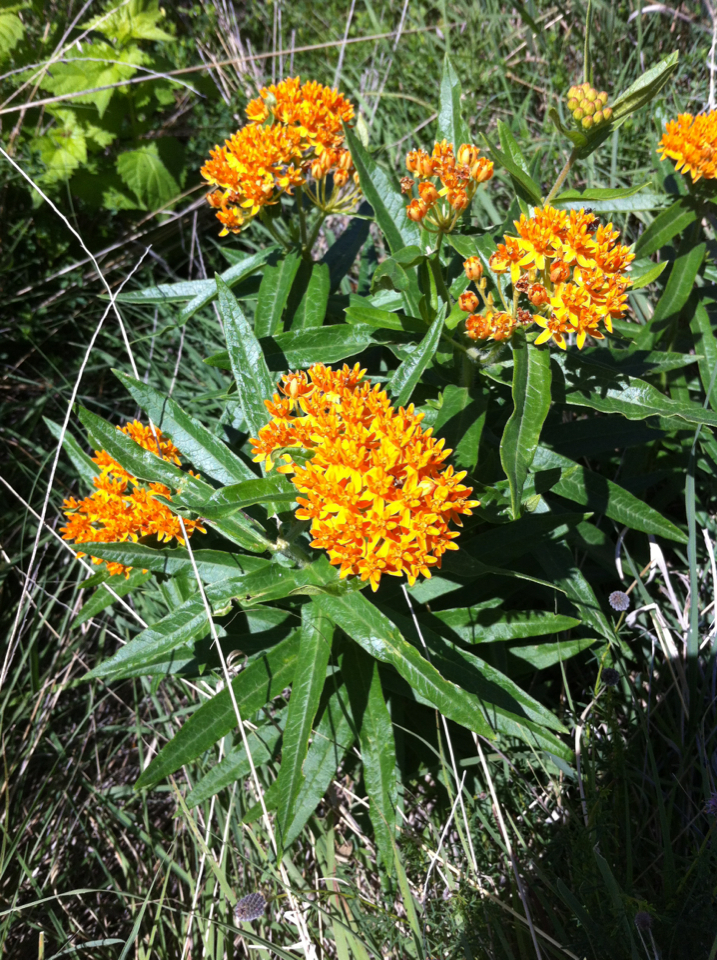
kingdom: Plantae
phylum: Tracheophyta
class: Magnoliopsida
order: Gentianales
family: Apocynaceae
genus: Asclepias
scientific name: Asclepias tuberosa
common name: Butterfly milkweed
